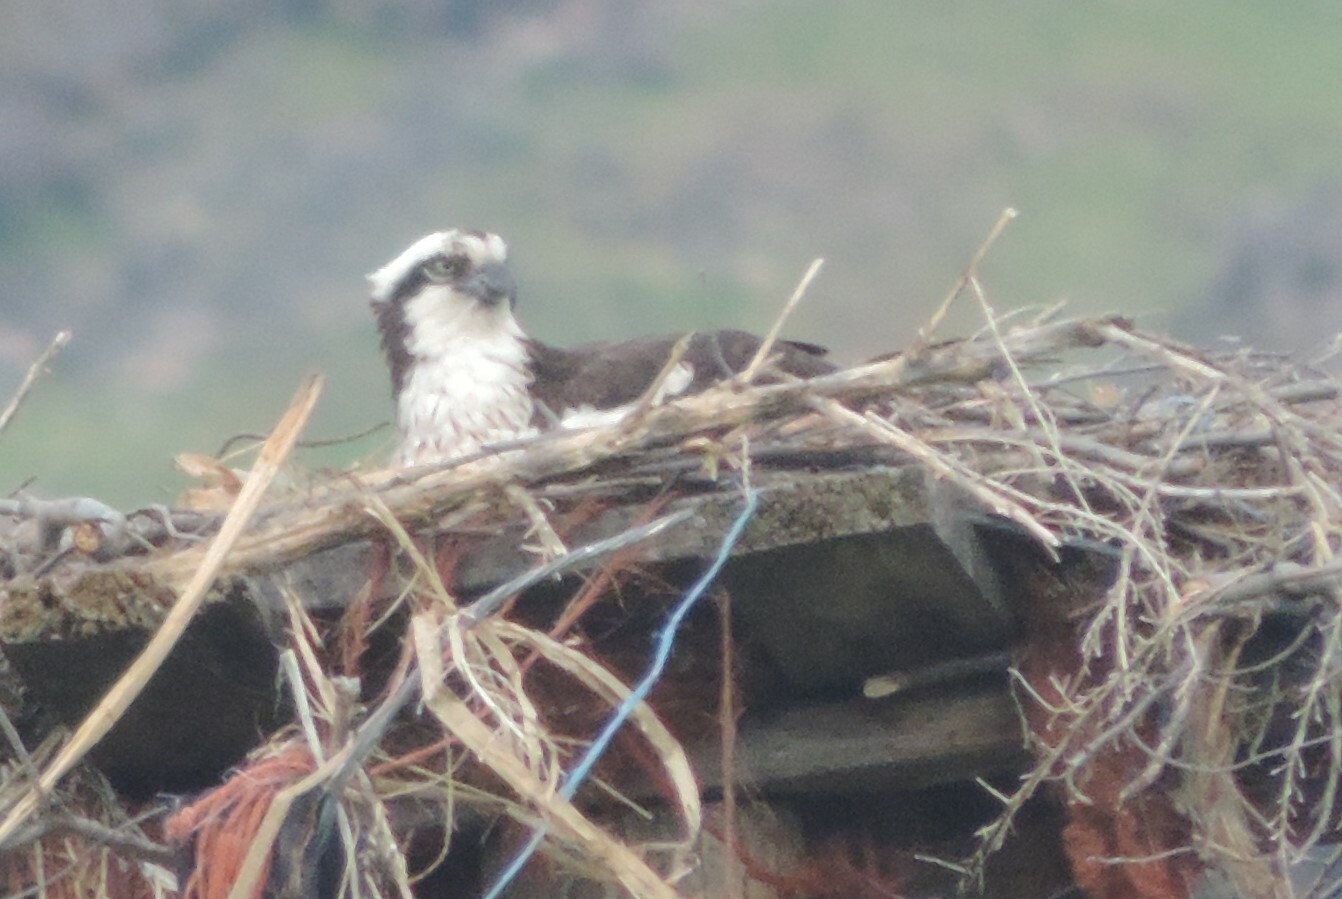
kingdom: Animalia
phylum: Chordata
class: Aves
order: Accipitriformes
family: Pandionidae
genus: Pandion
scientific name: Pandion haliaetus
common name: Osprey
